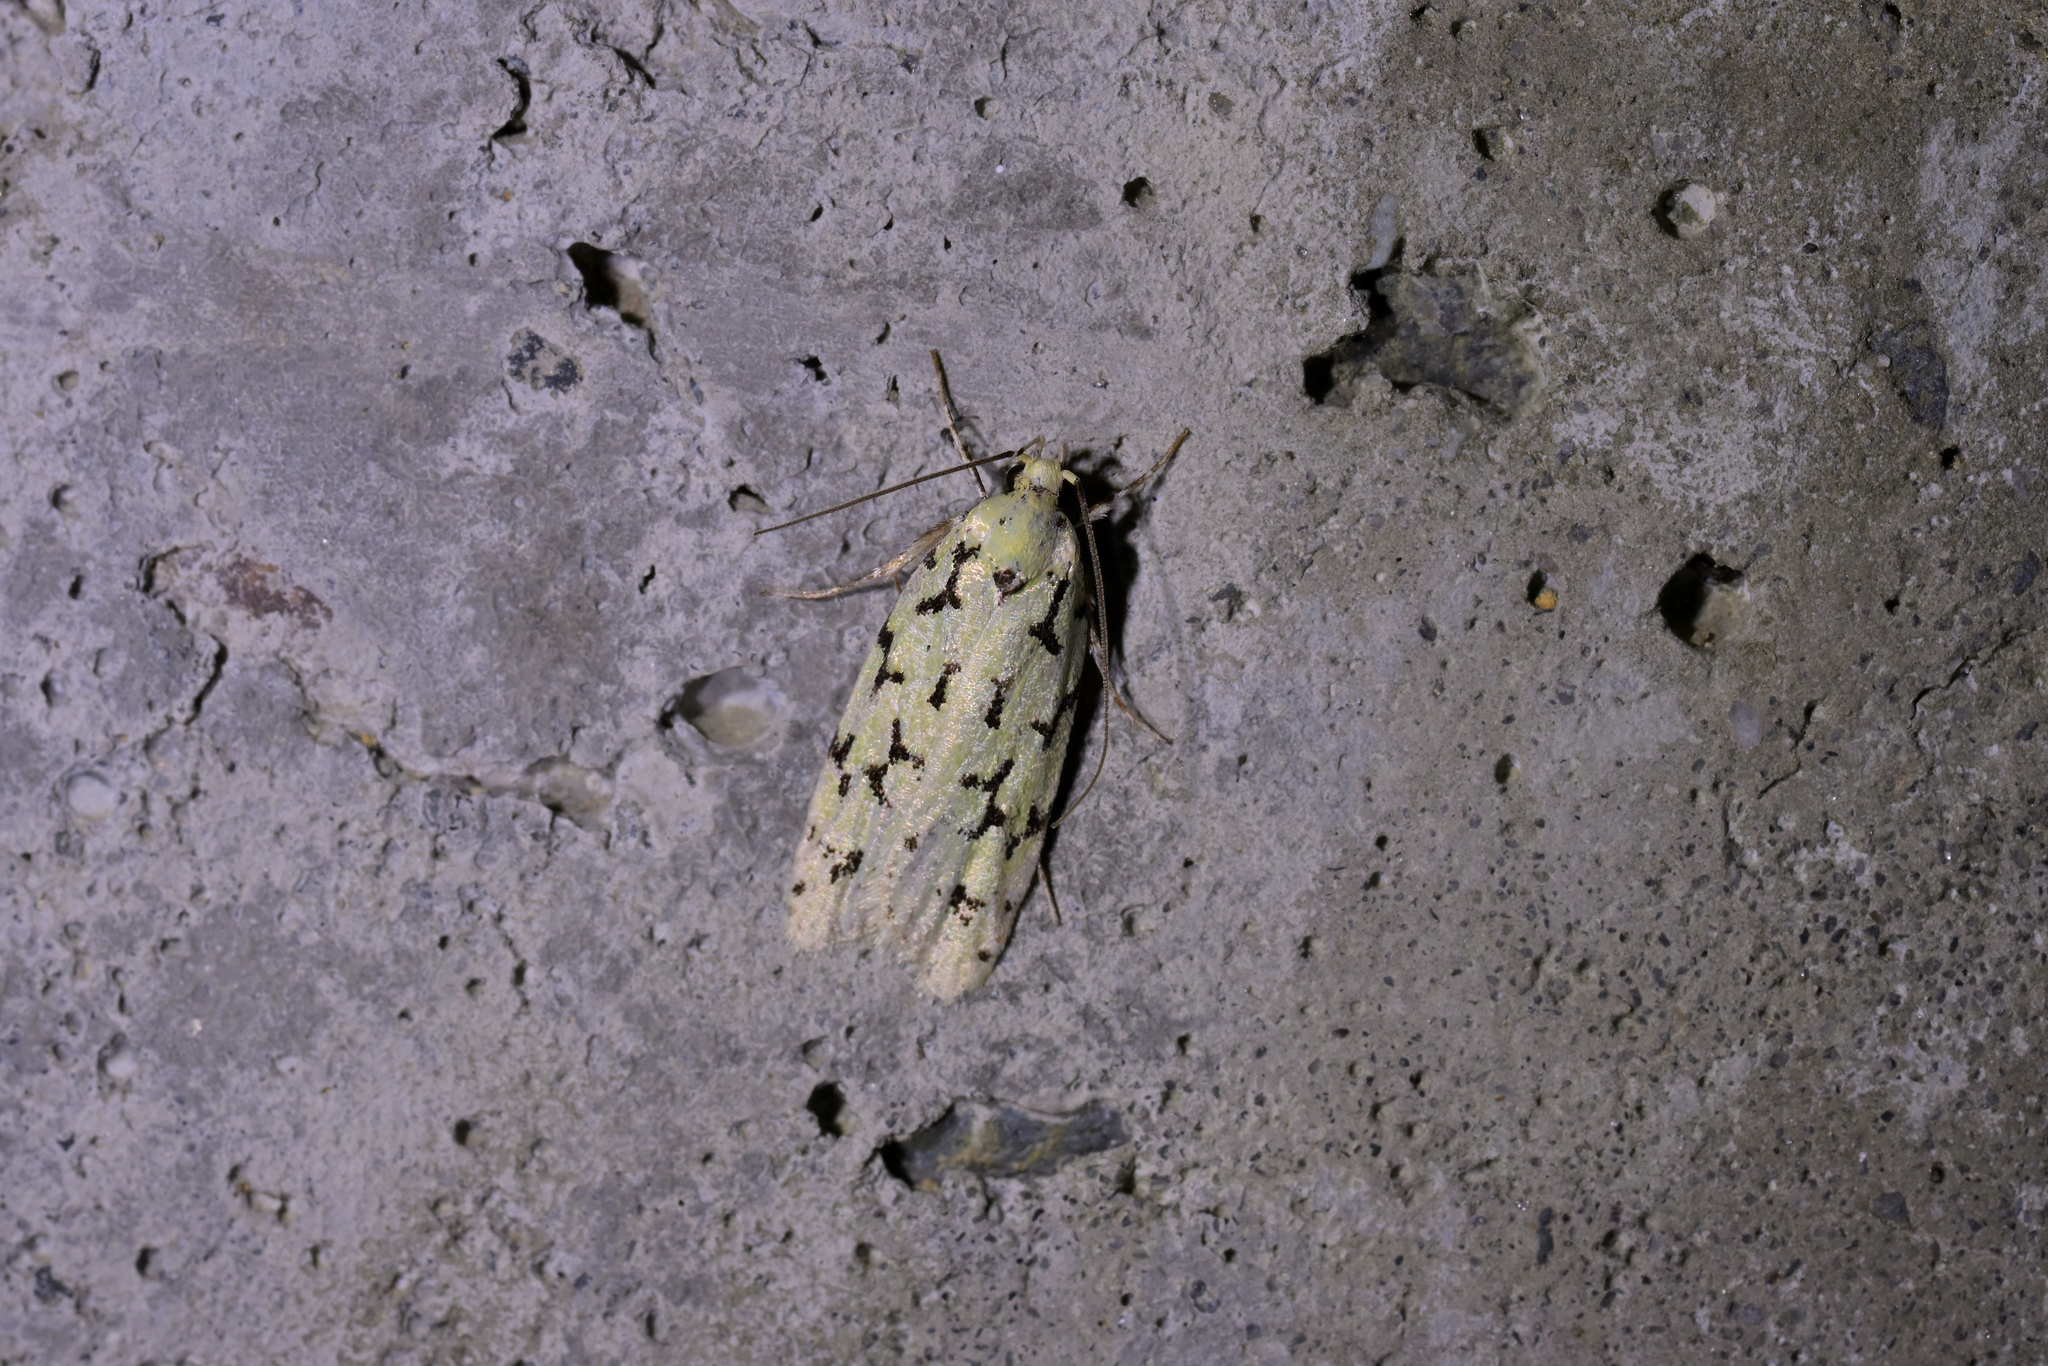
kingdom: Animalia
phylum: Arthropoda
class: Insecta
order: Lepidoptera
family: Oecophoridae
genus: Izatha
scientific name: Izatha huttoni
